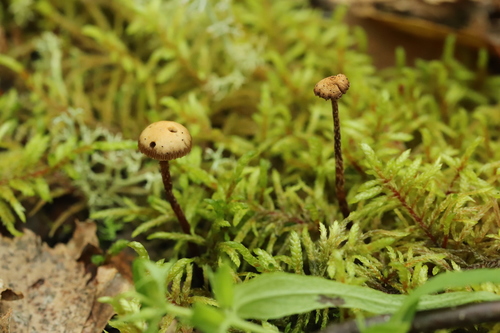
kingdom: Fungi
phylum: Basidiomycota
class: Agaricomycetes
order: Agaricales
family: Strophariaceae
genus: Deconica
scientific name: Deconica phyllogena
